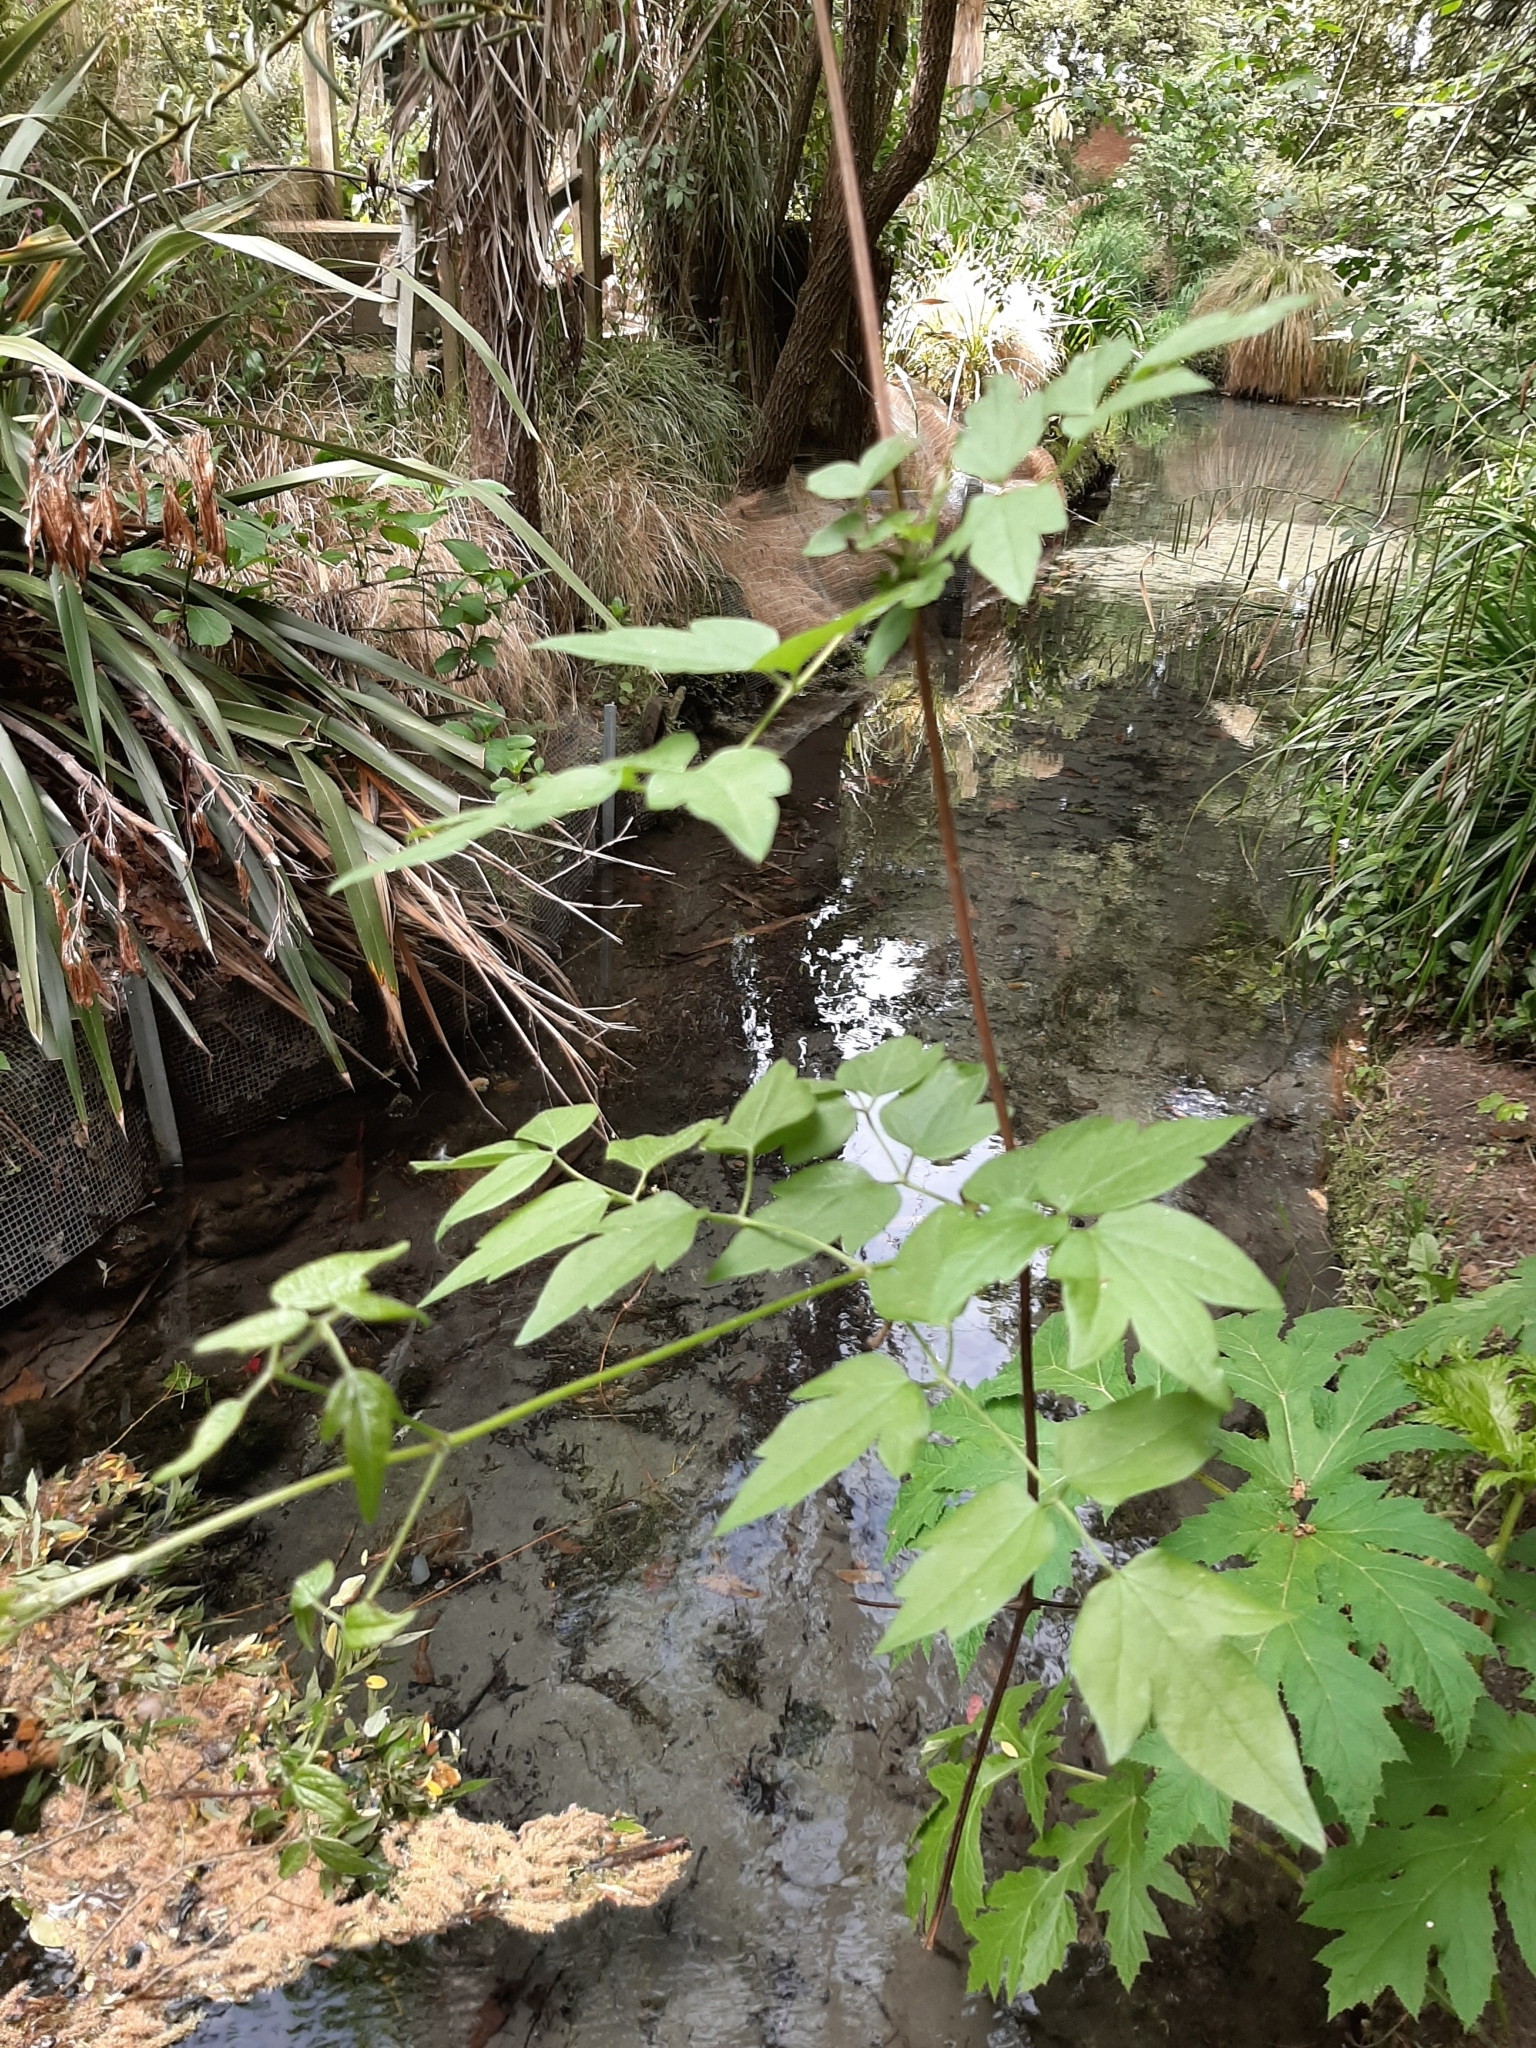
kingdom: Plantae
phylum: Tracheophyta
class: Magnoliopsida
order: Ranunculales
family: Ranunculaceae
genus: Clematis
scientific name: Clematis vitalba
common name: Evergreen clematis
